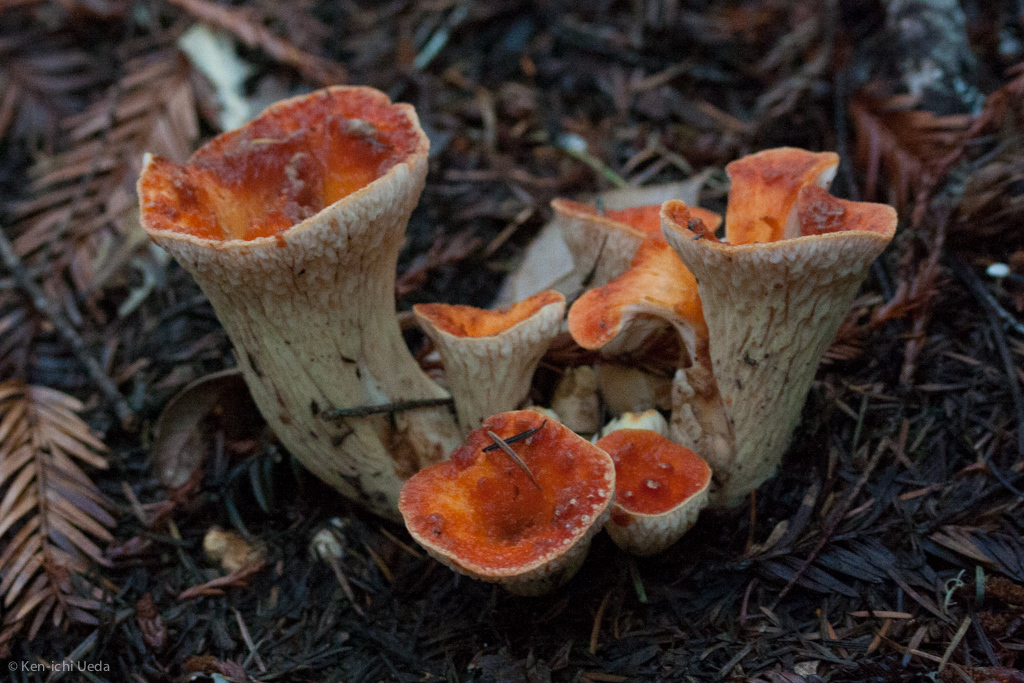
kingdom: Fungi
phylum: Basidiomycota
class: Agaricomycetes
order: Gomphales
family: Gomphaceae
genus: Turbinellus
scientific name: Turbinellus floccosus
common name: Scaly chanterelle
